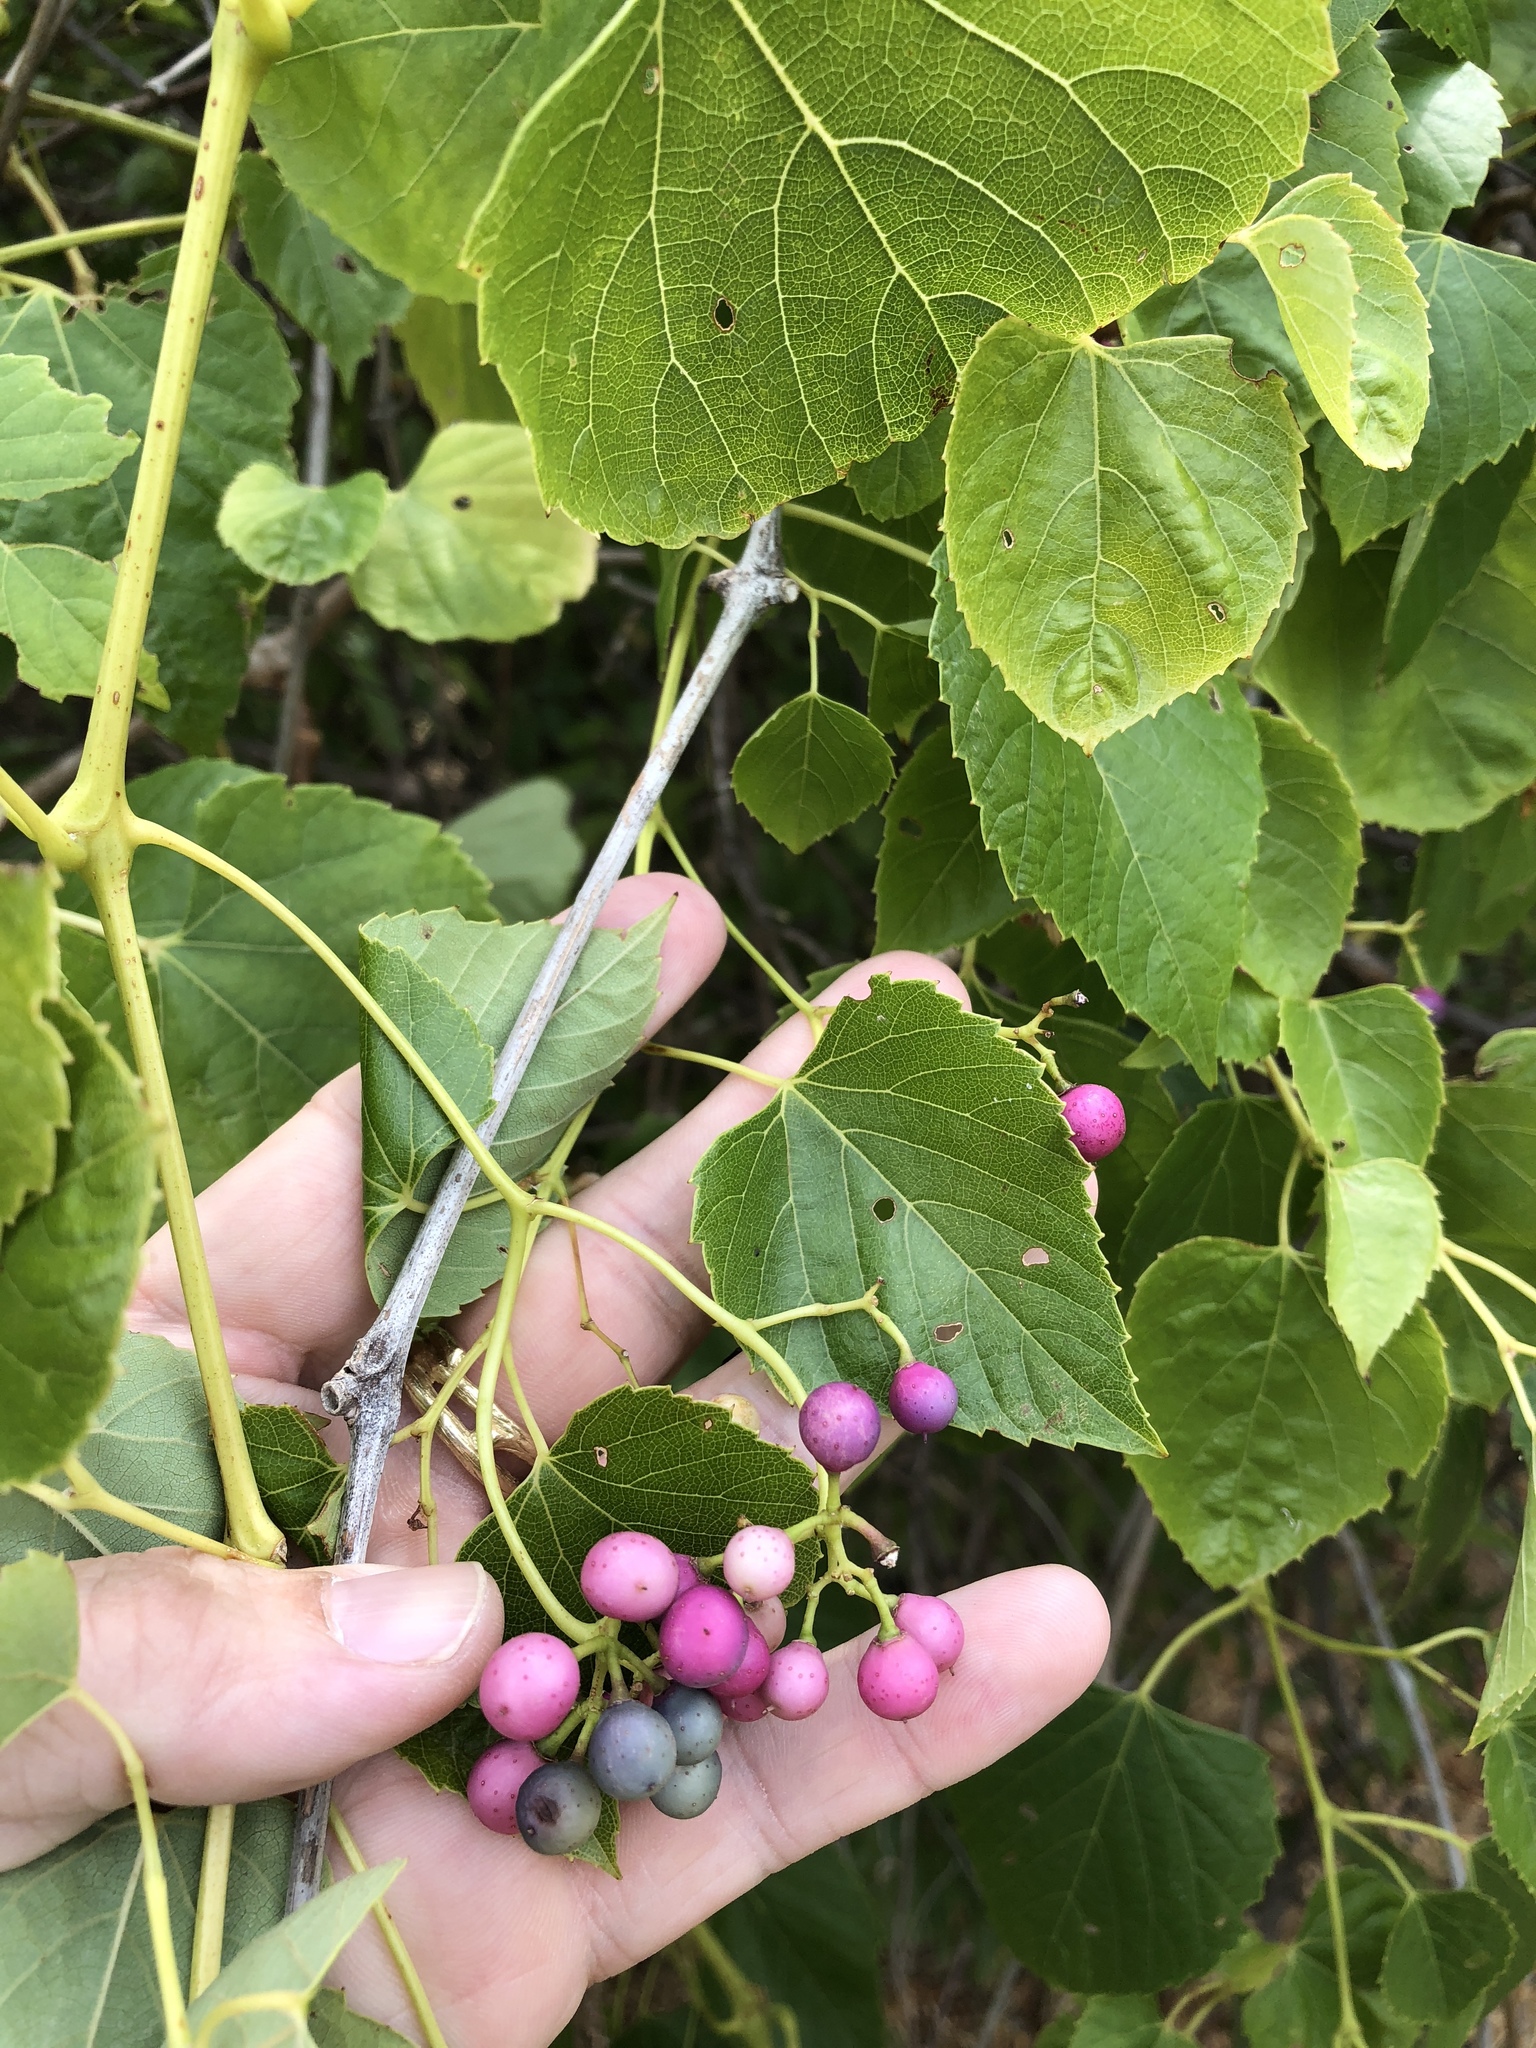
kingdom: Plantae
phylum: Tracheophyta
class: Magnoliopsida
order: Vitales
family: Vitaceae
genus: Ampelopsis
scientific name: Ampelopsis cordata
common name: Heart-leaf ampelopsis
